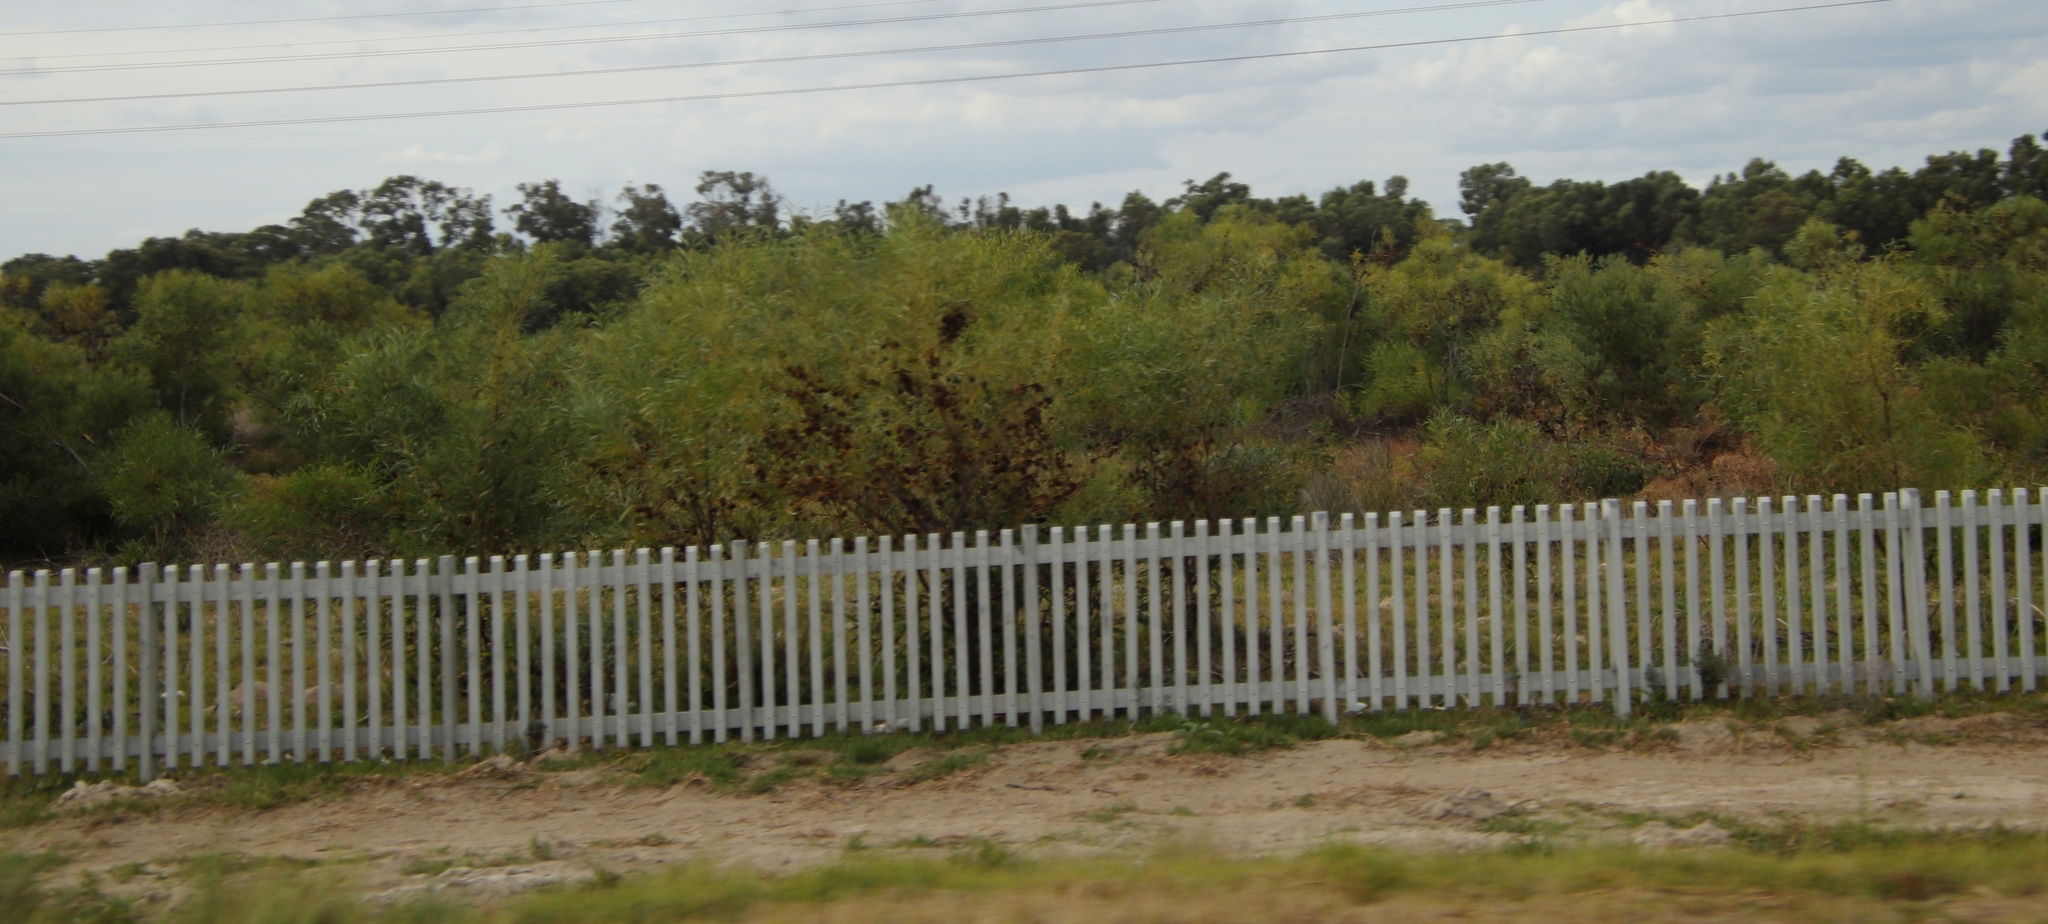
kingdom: Plantae
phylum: Tracheophyta
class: Magnoliopsida
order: Fabales
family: Fabaceae
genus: Acacia
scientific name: Acacia saligna
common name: Orange wattle
